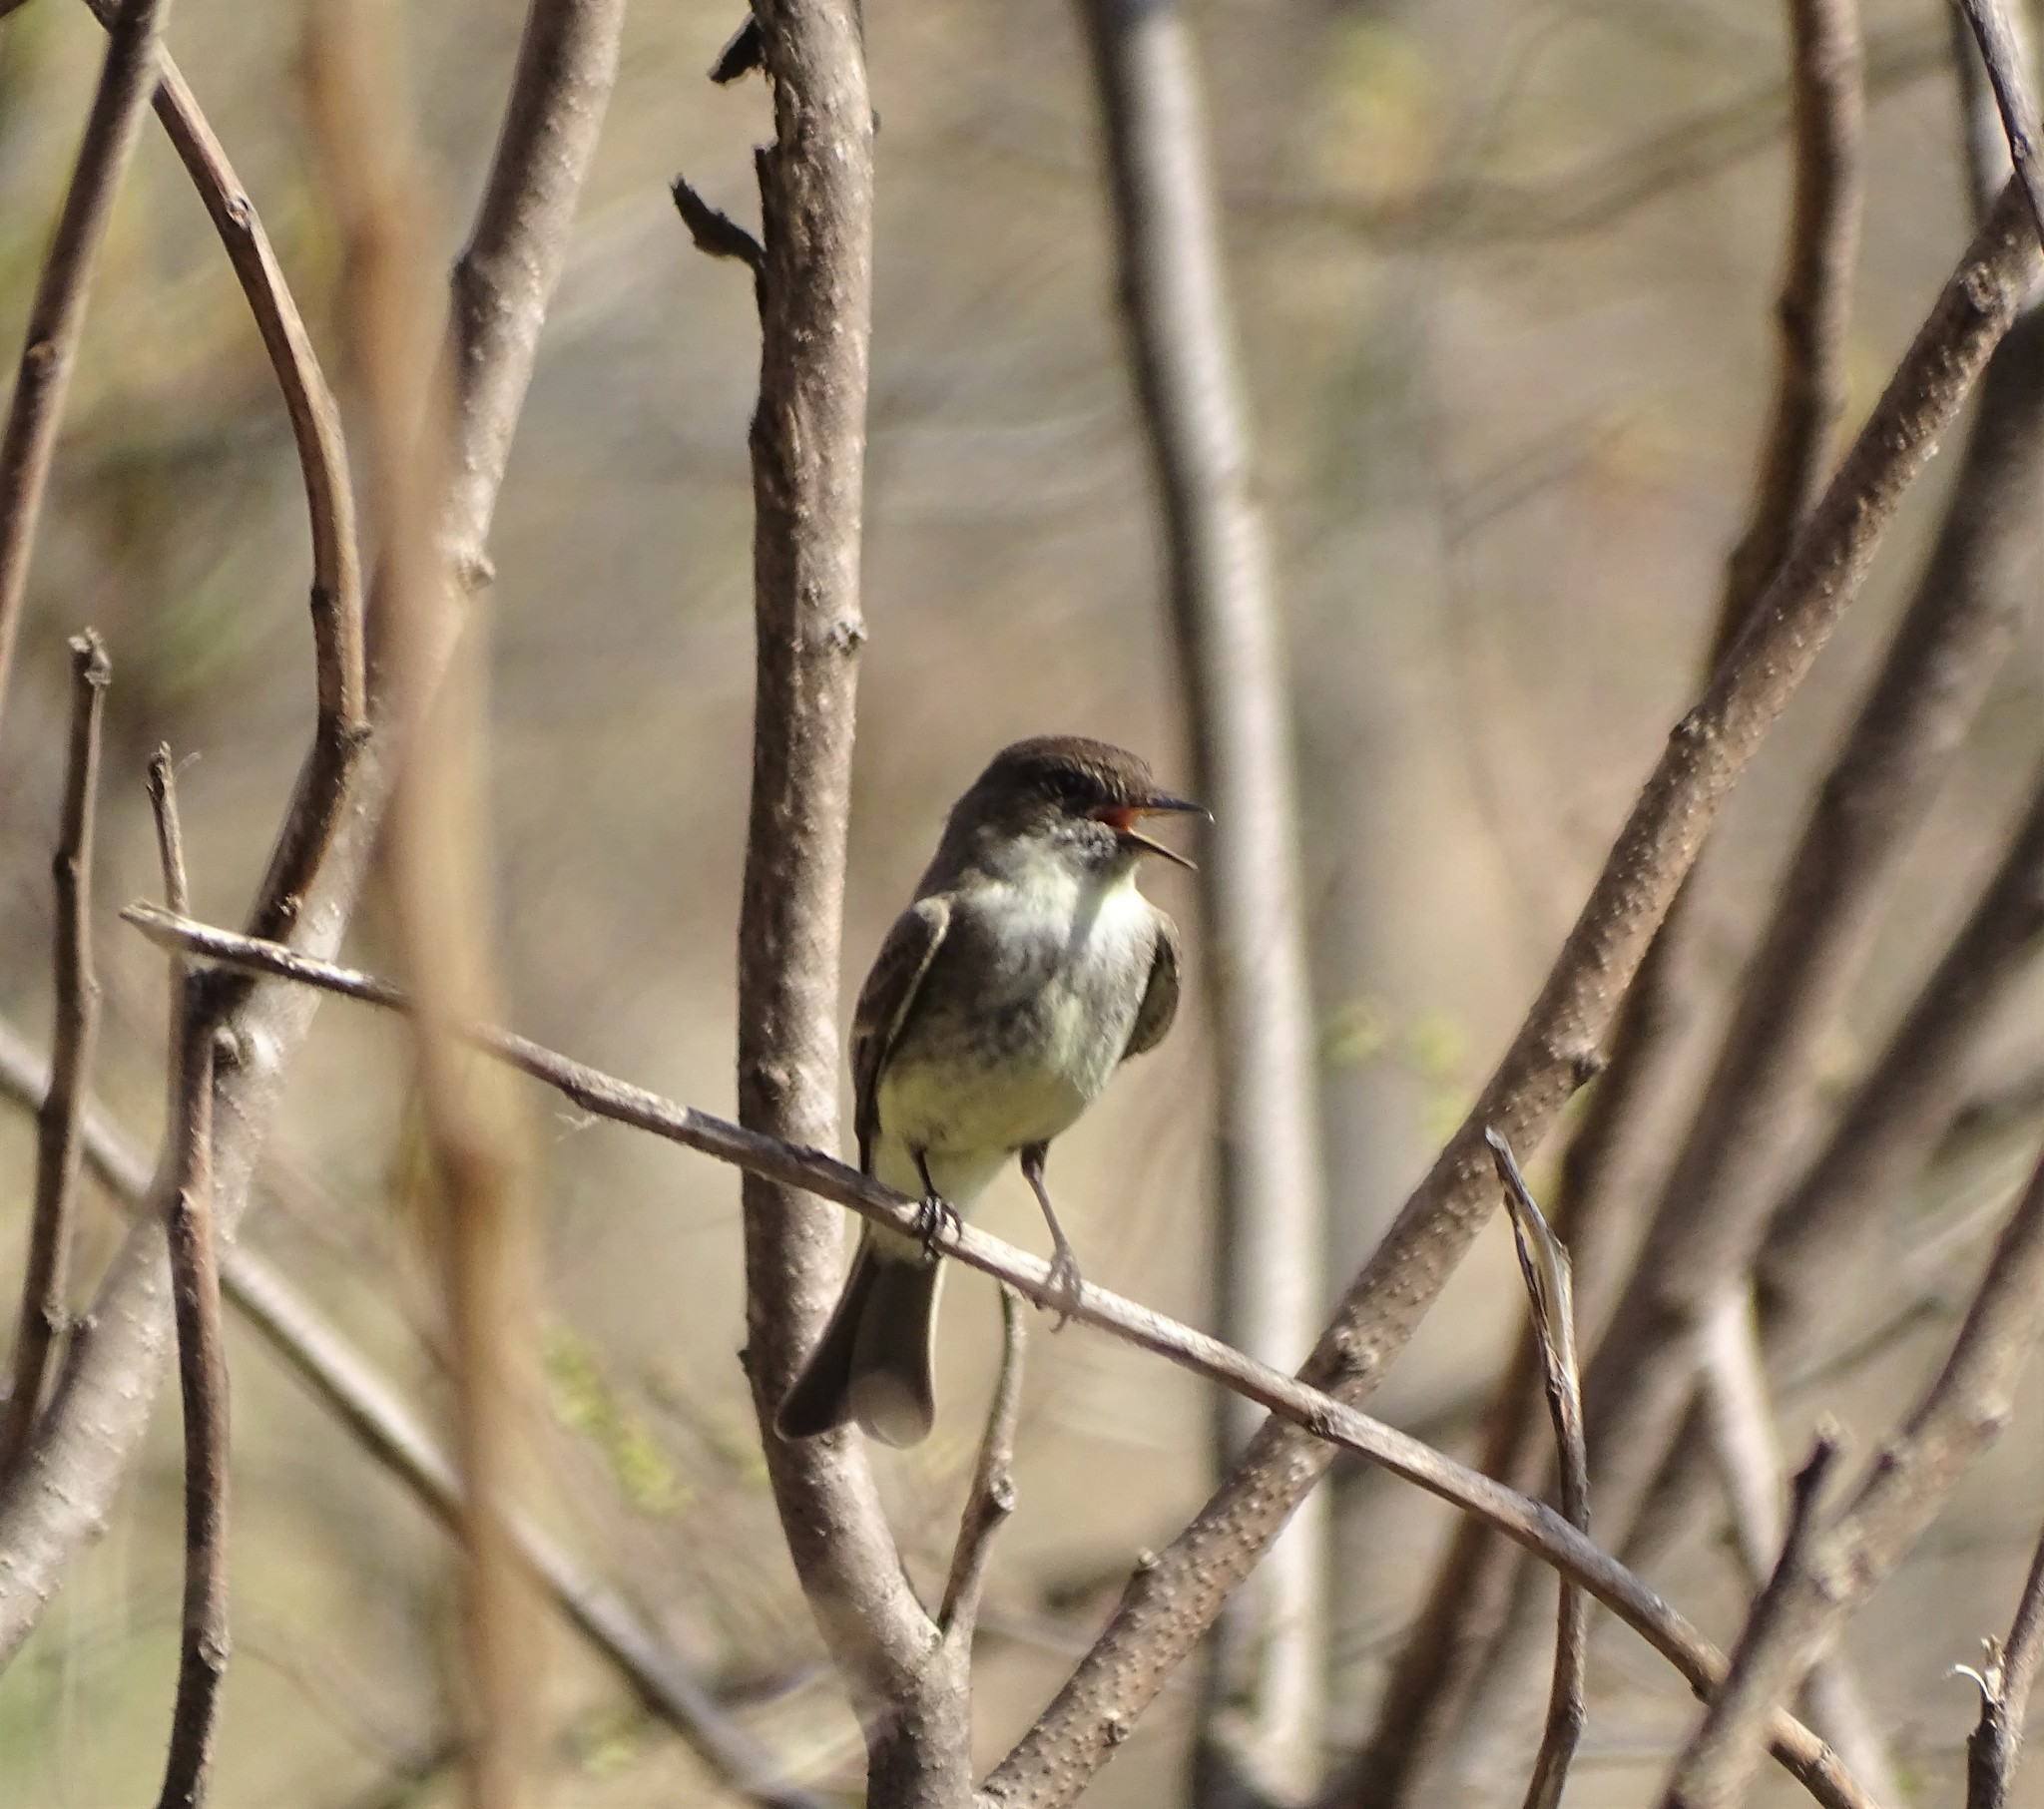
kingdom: Animalia
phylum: Chordata
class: Aves
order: Passeriformes
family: Tyrannidae
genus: Sayornis
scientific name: Sayornis phoebe
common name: Eastern phoebe
